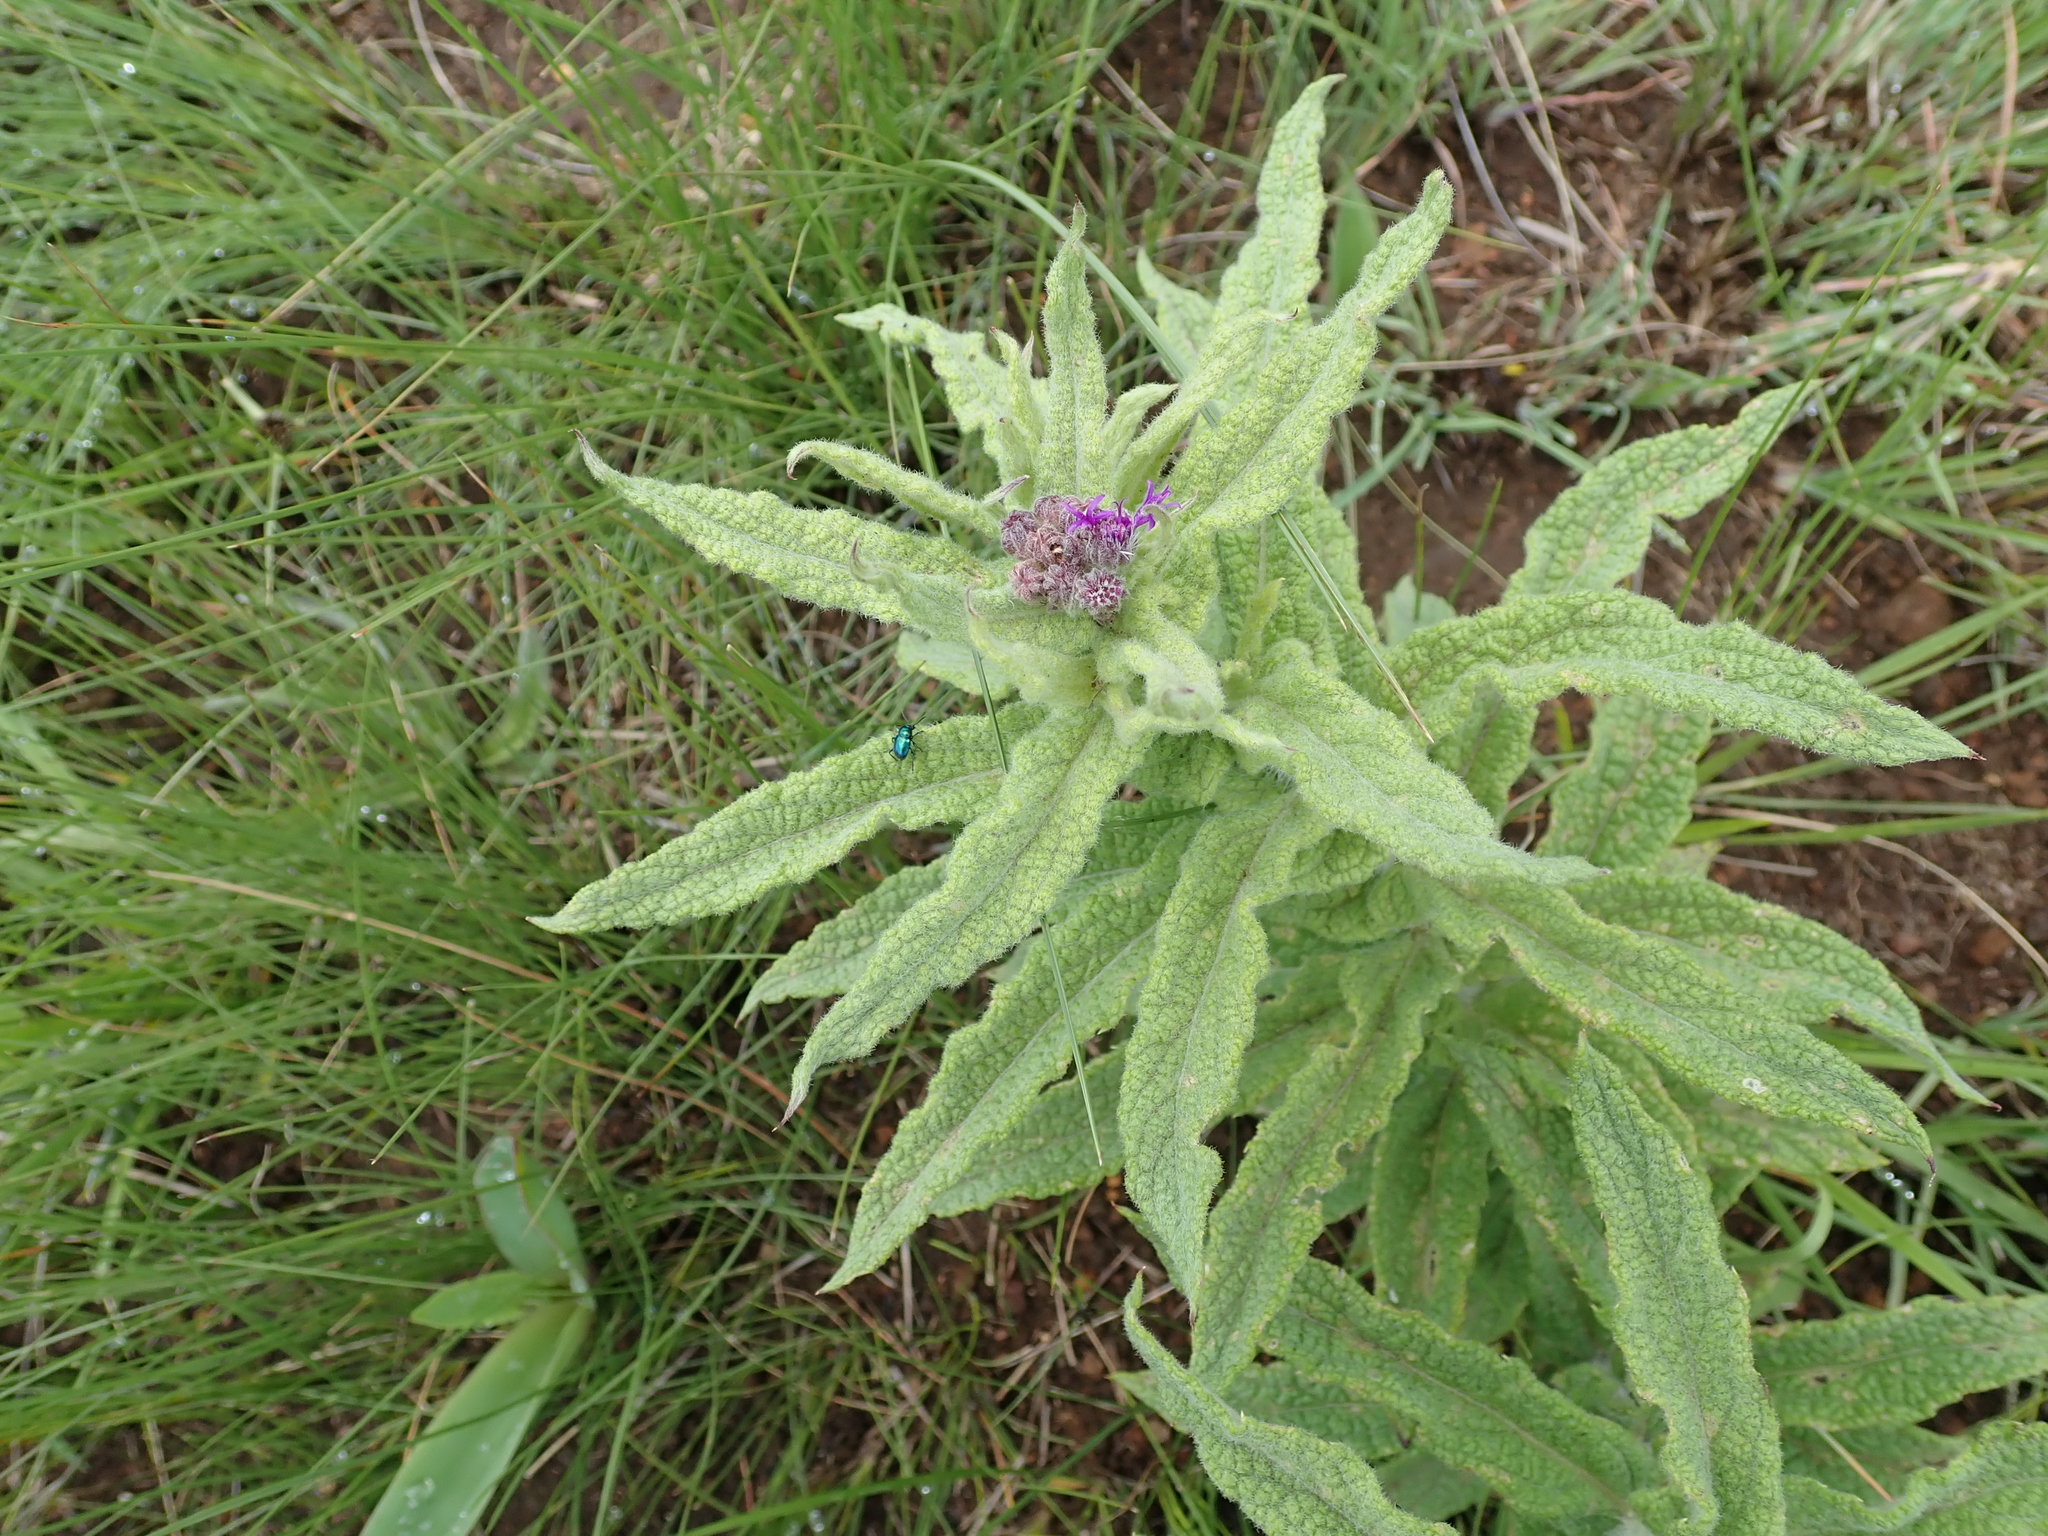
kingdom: Plantae
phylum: Tracheophyta
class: Magnoliopsida
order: Asterales
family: Asteraceae
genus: Hilliardiella
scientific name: Hilliardiella hirsuta
